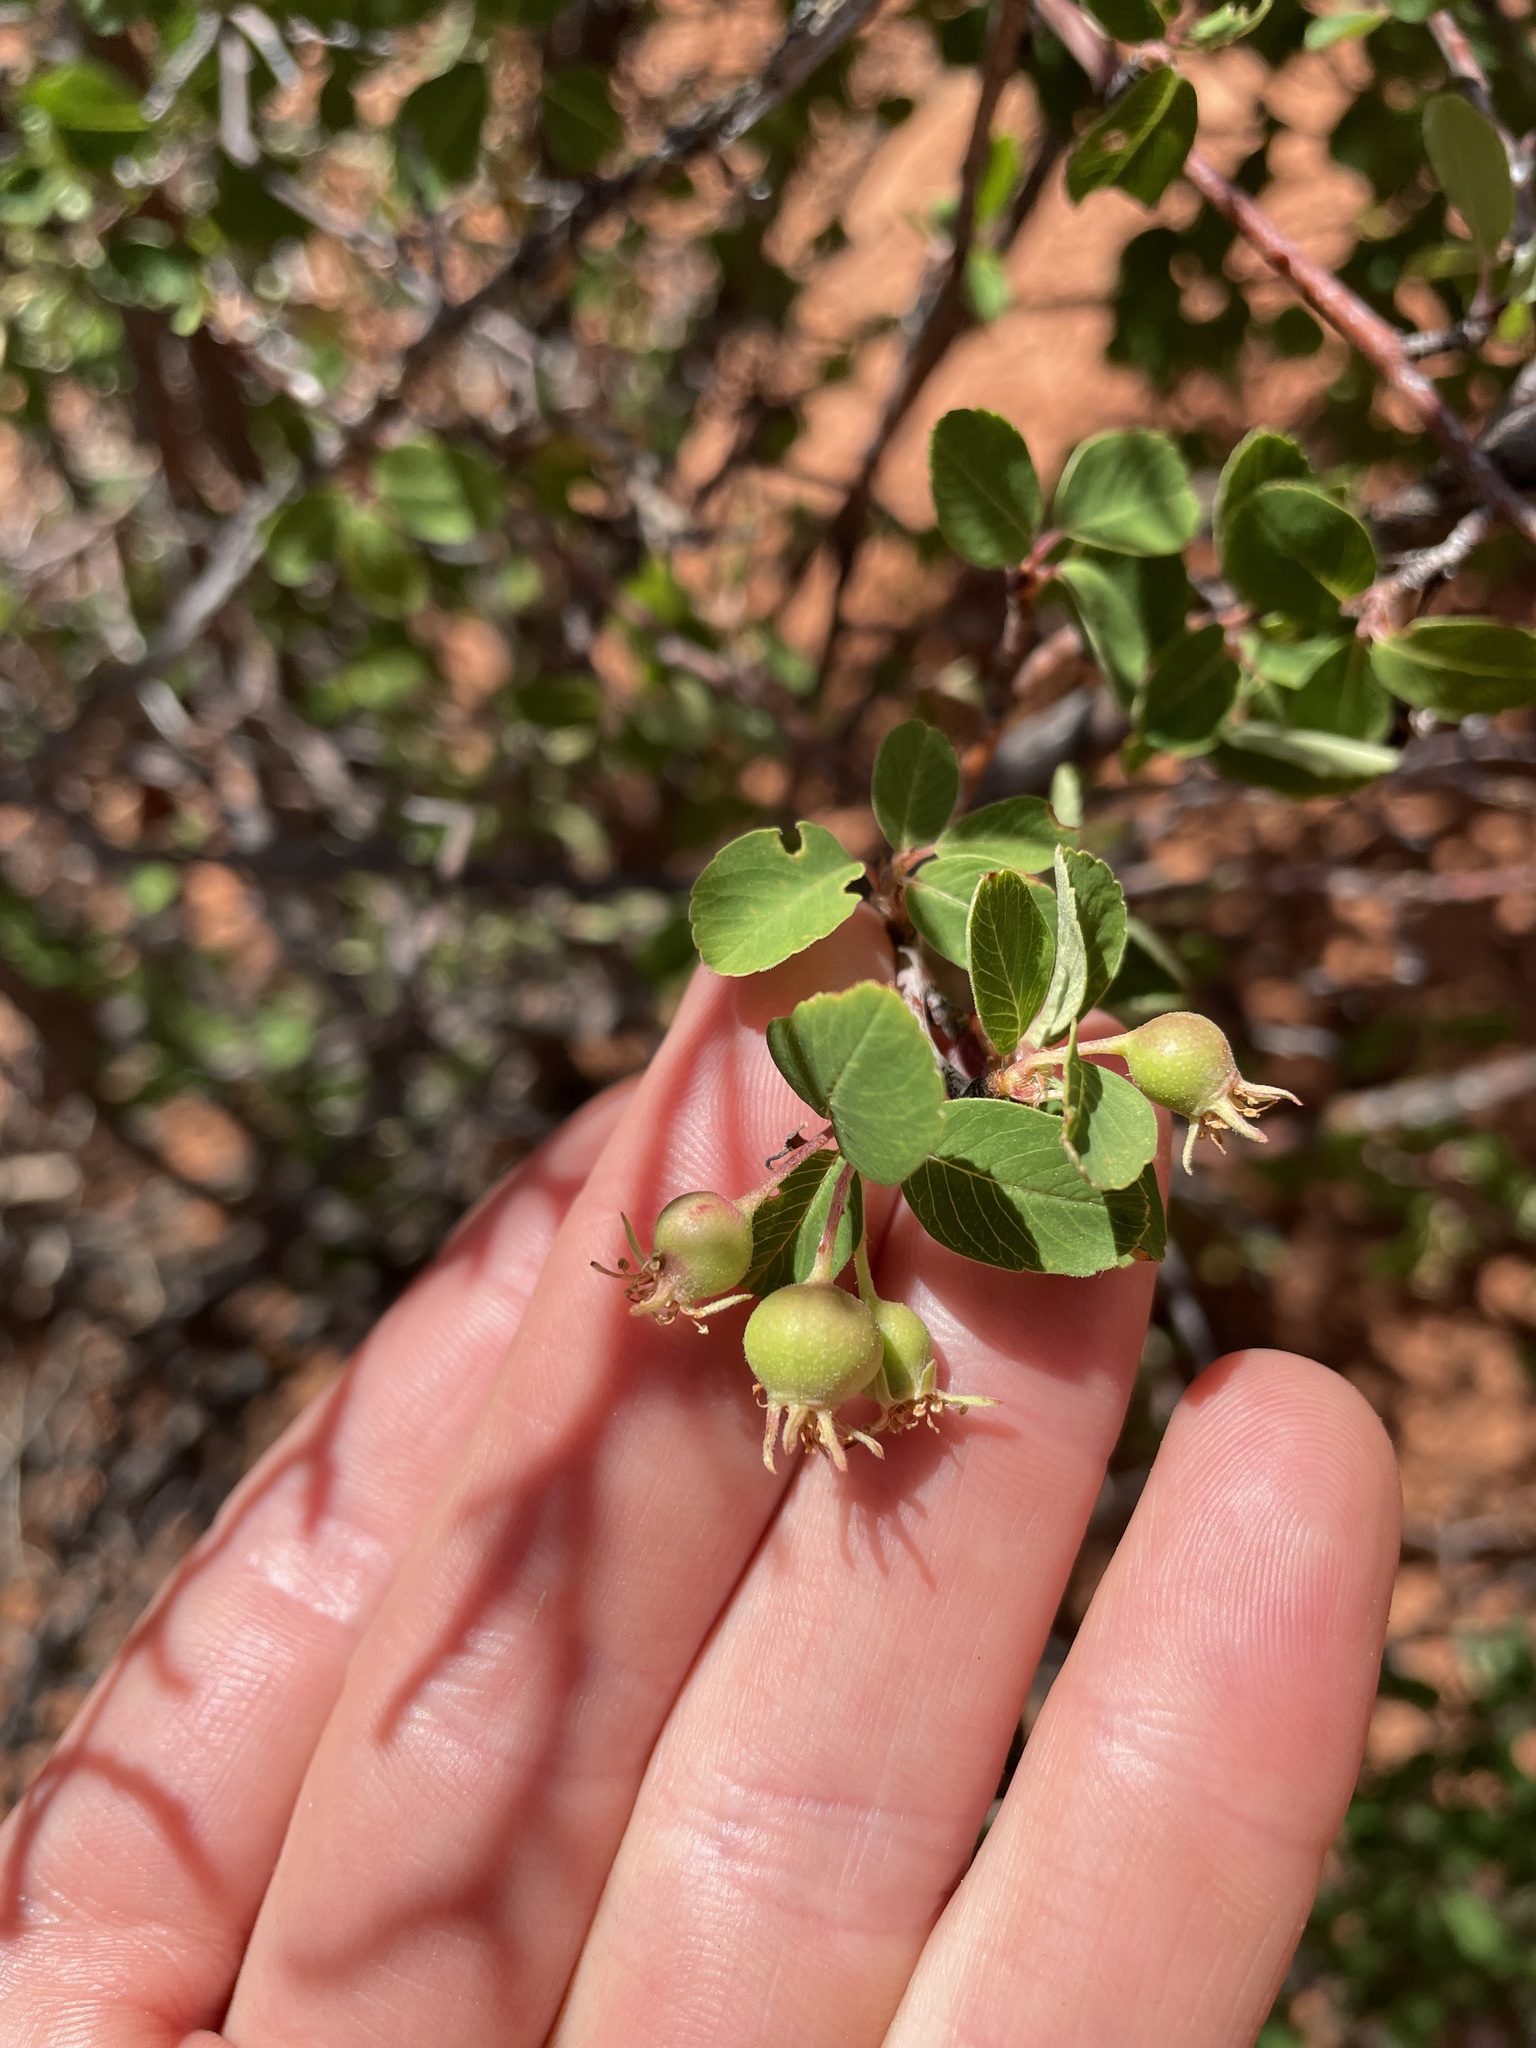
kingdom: Plantae
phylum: Tracheophyta
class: Magnoliopsida
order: Rosales
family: Rosaceae
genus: Amelanchier
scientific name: Amelanchier utahensis
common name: Utah serviceberry
